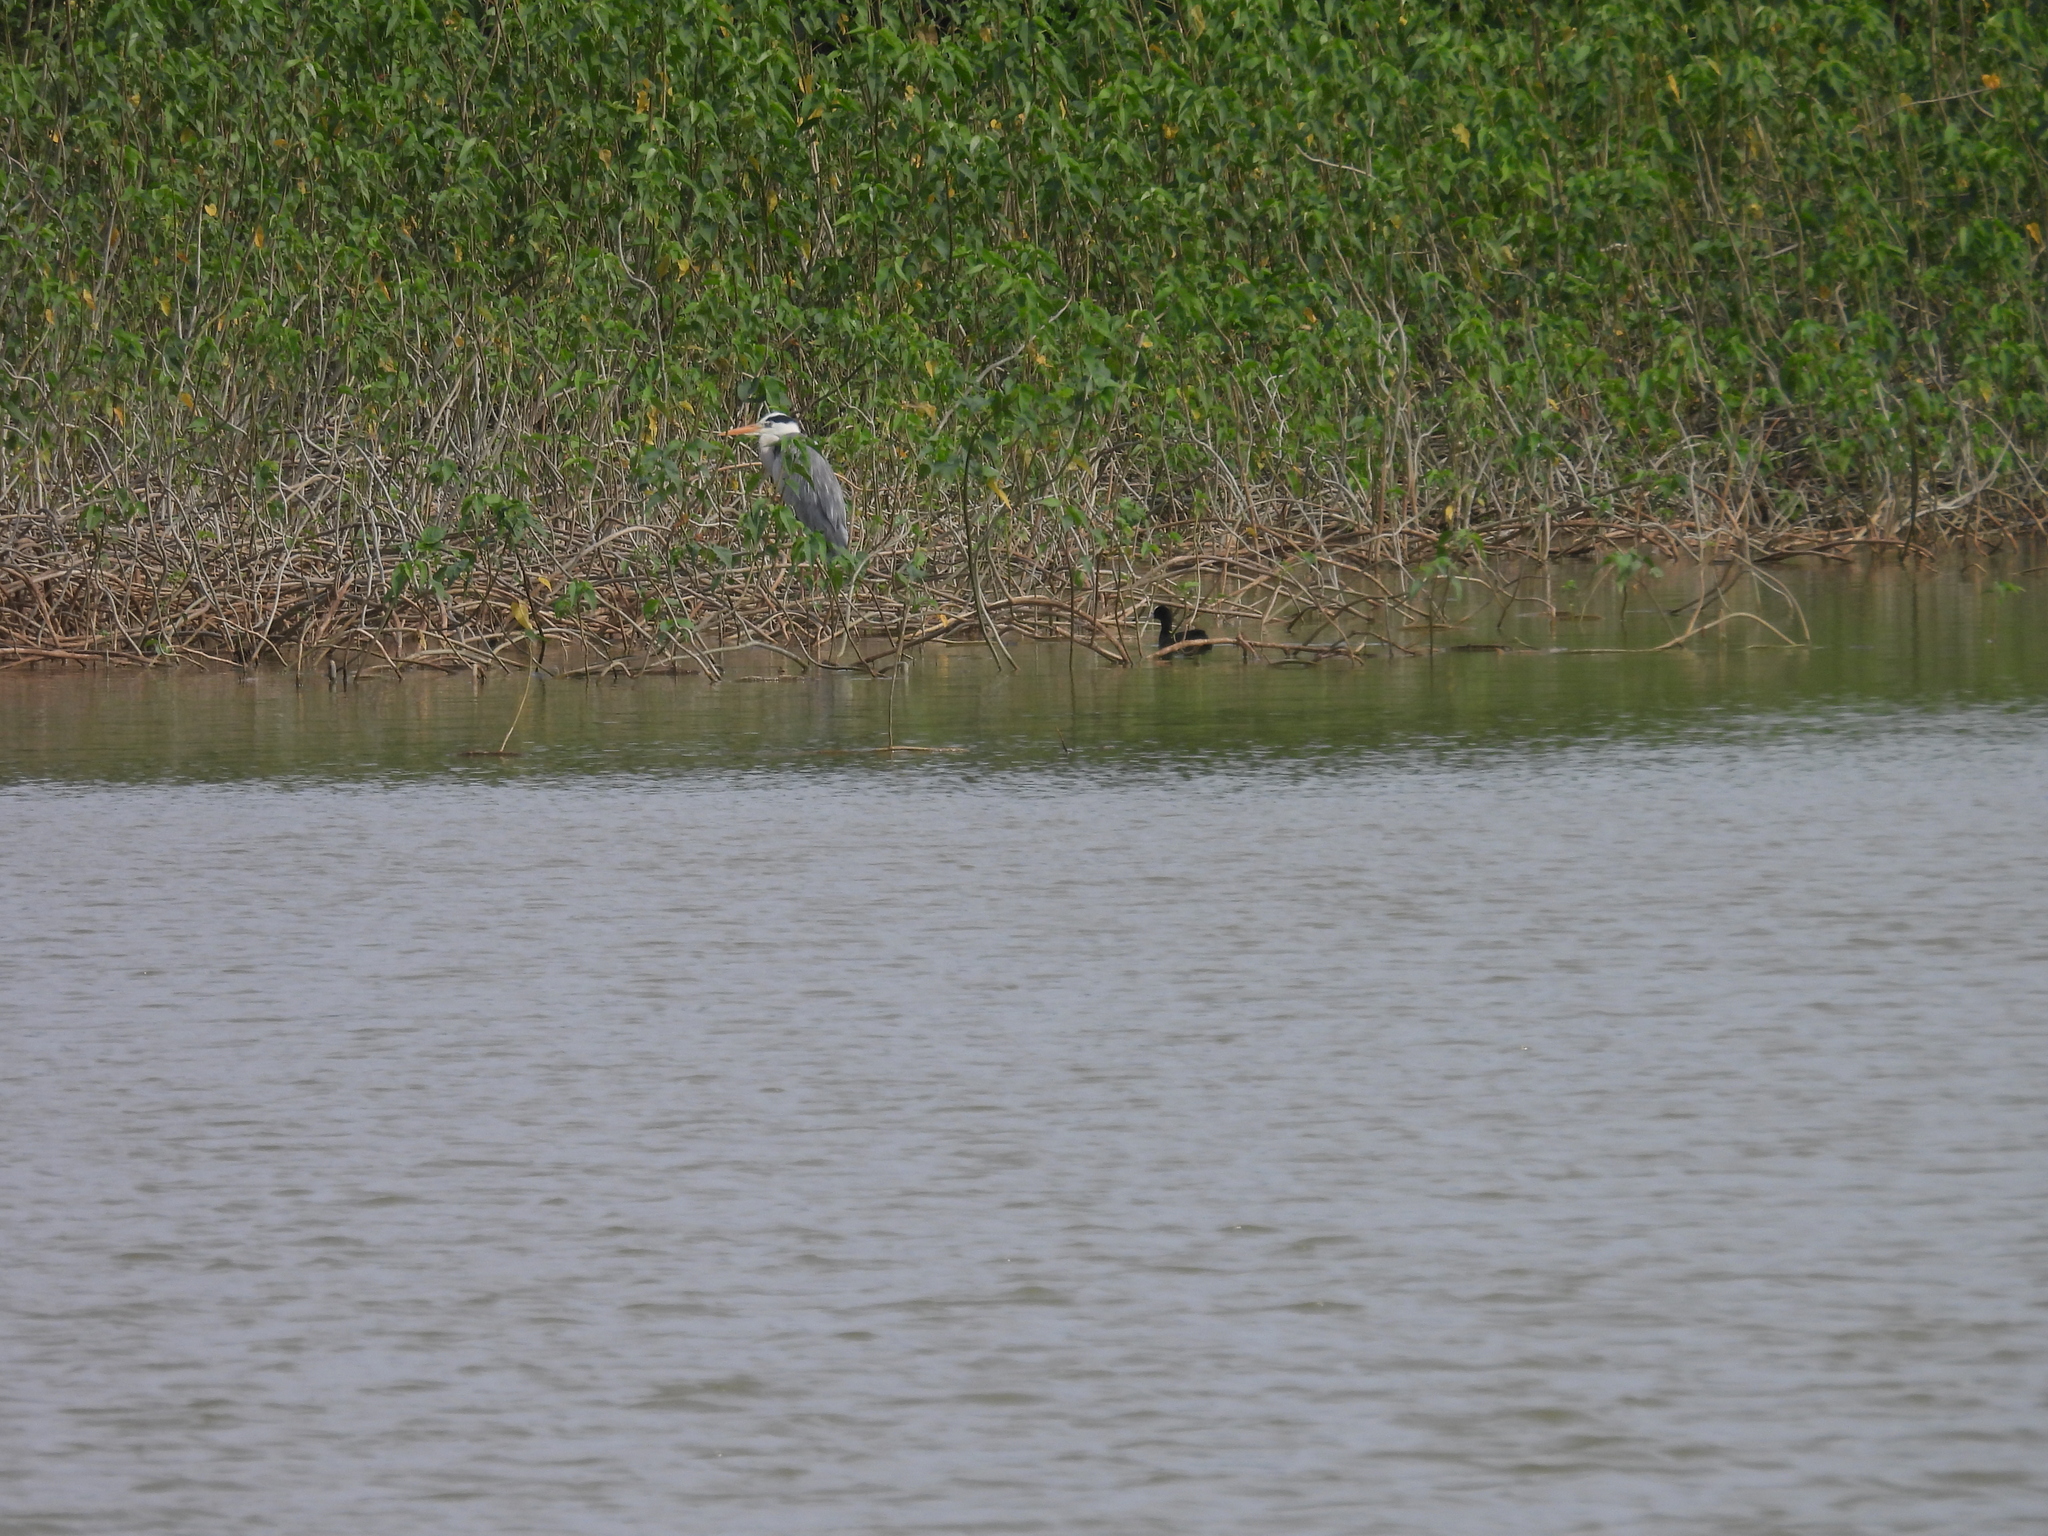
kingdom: Animalia
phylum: Chordata
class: Aves
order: Gruiformes
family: Rallidae
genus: Fulica
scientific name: Fulica atra
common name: Eurasian coot
